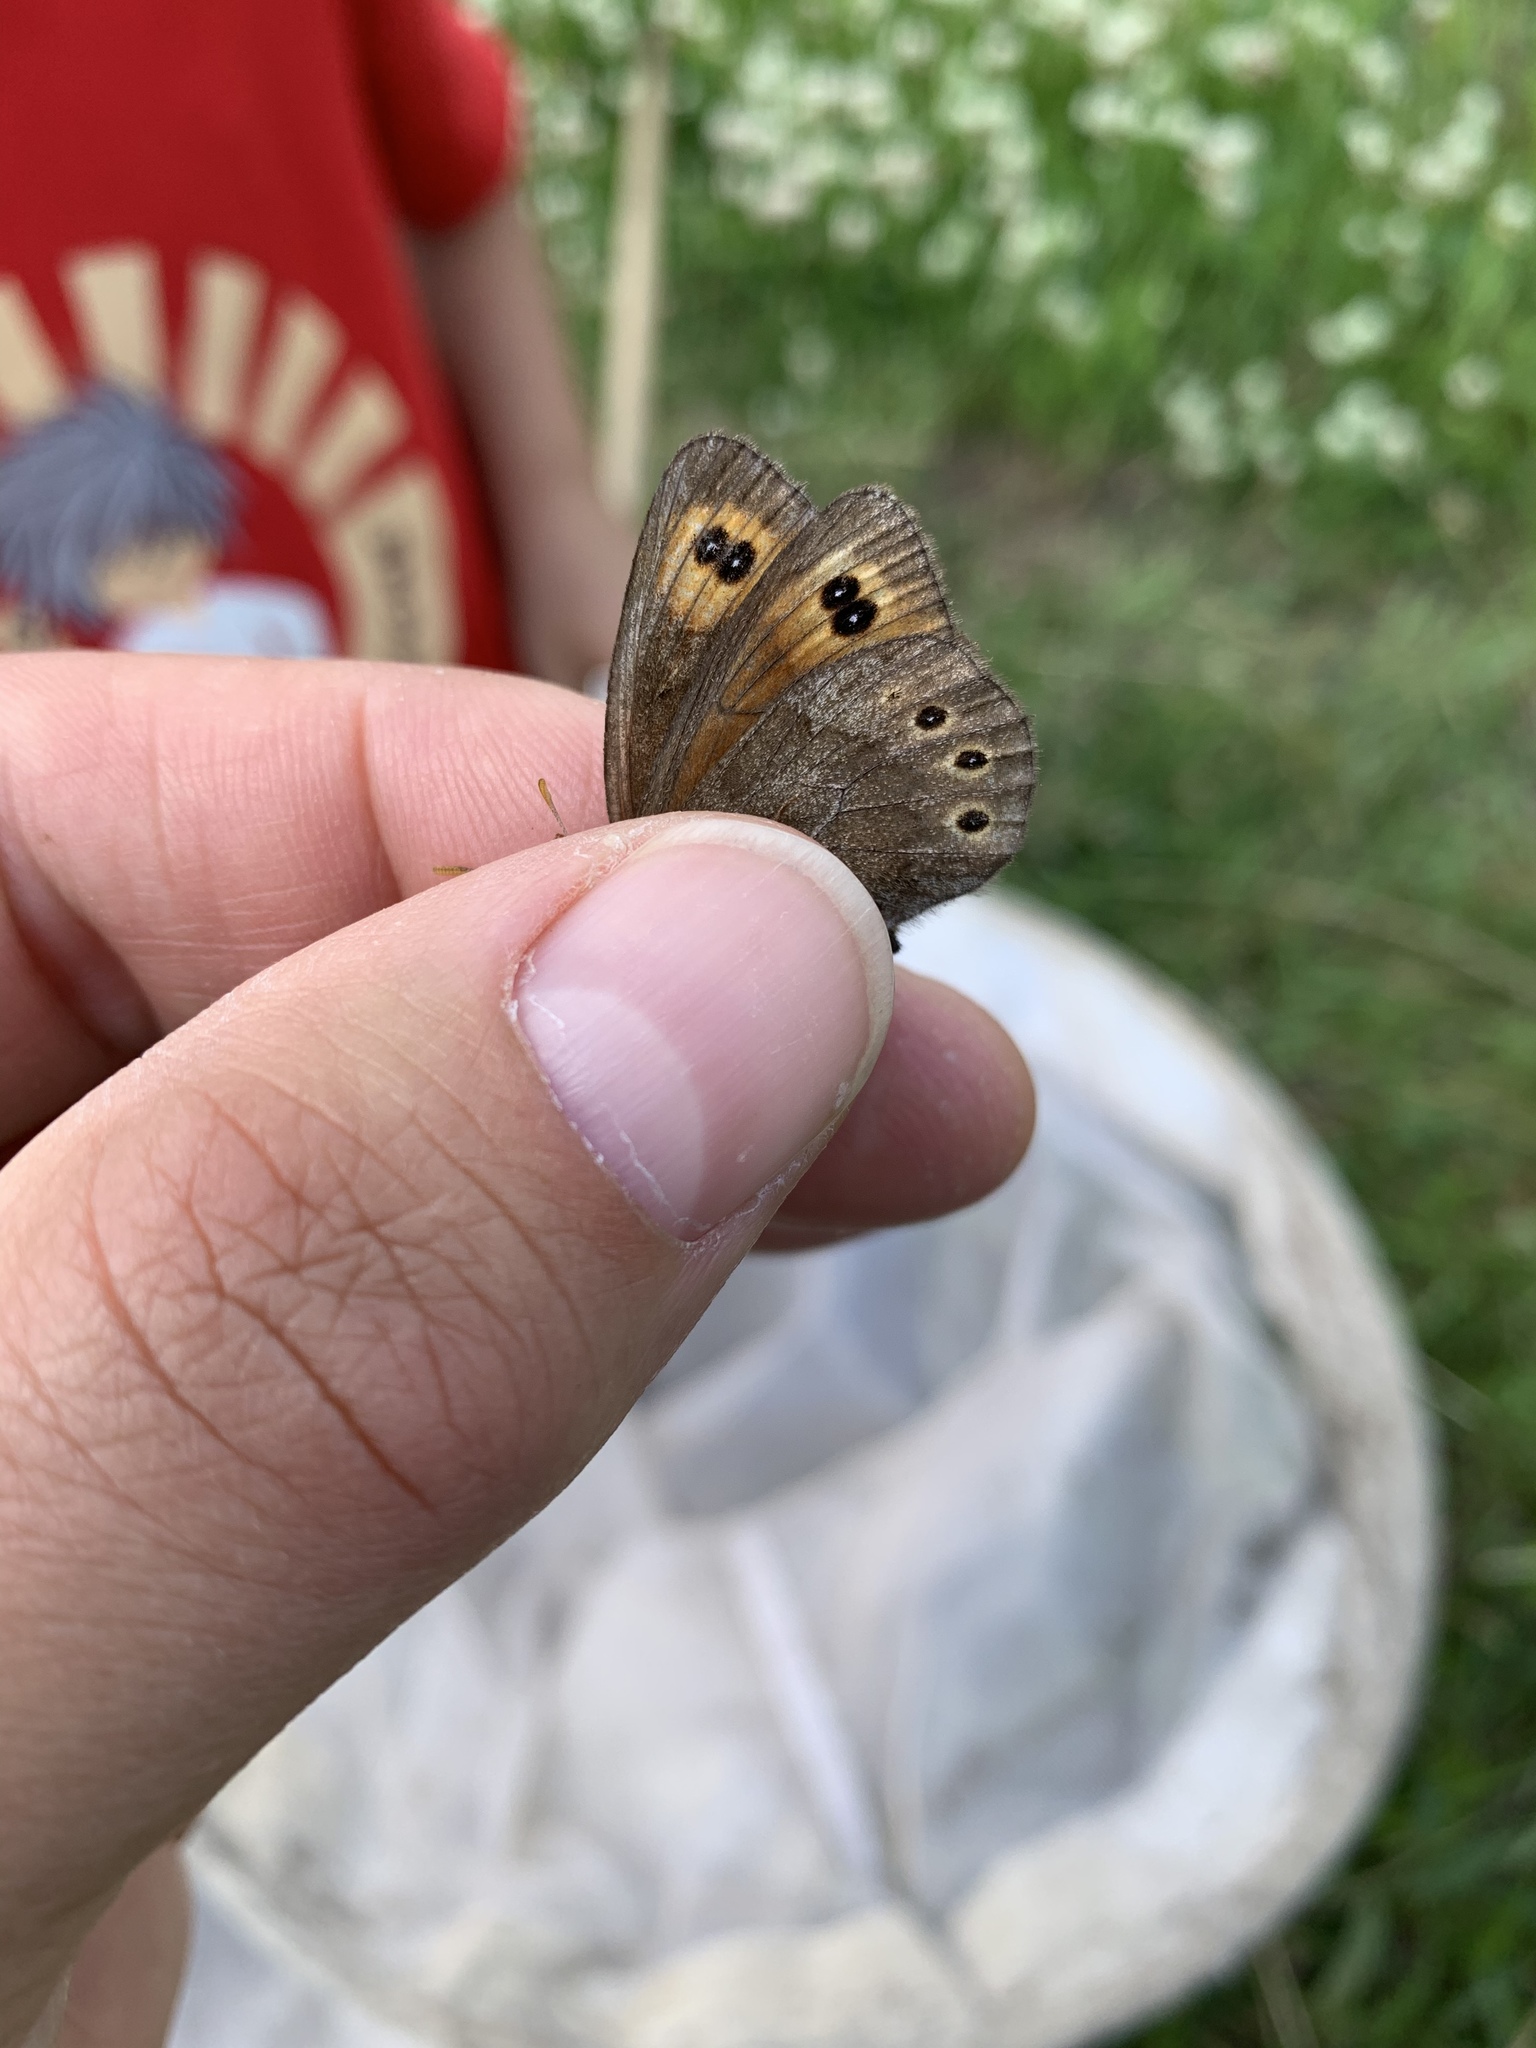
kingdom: Animalia
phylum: Arthropoda
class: Insecta
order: Lepidoptera
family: Nymphalidae
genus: Erebia
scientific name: Erebia epipsodea
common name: Common alpine
